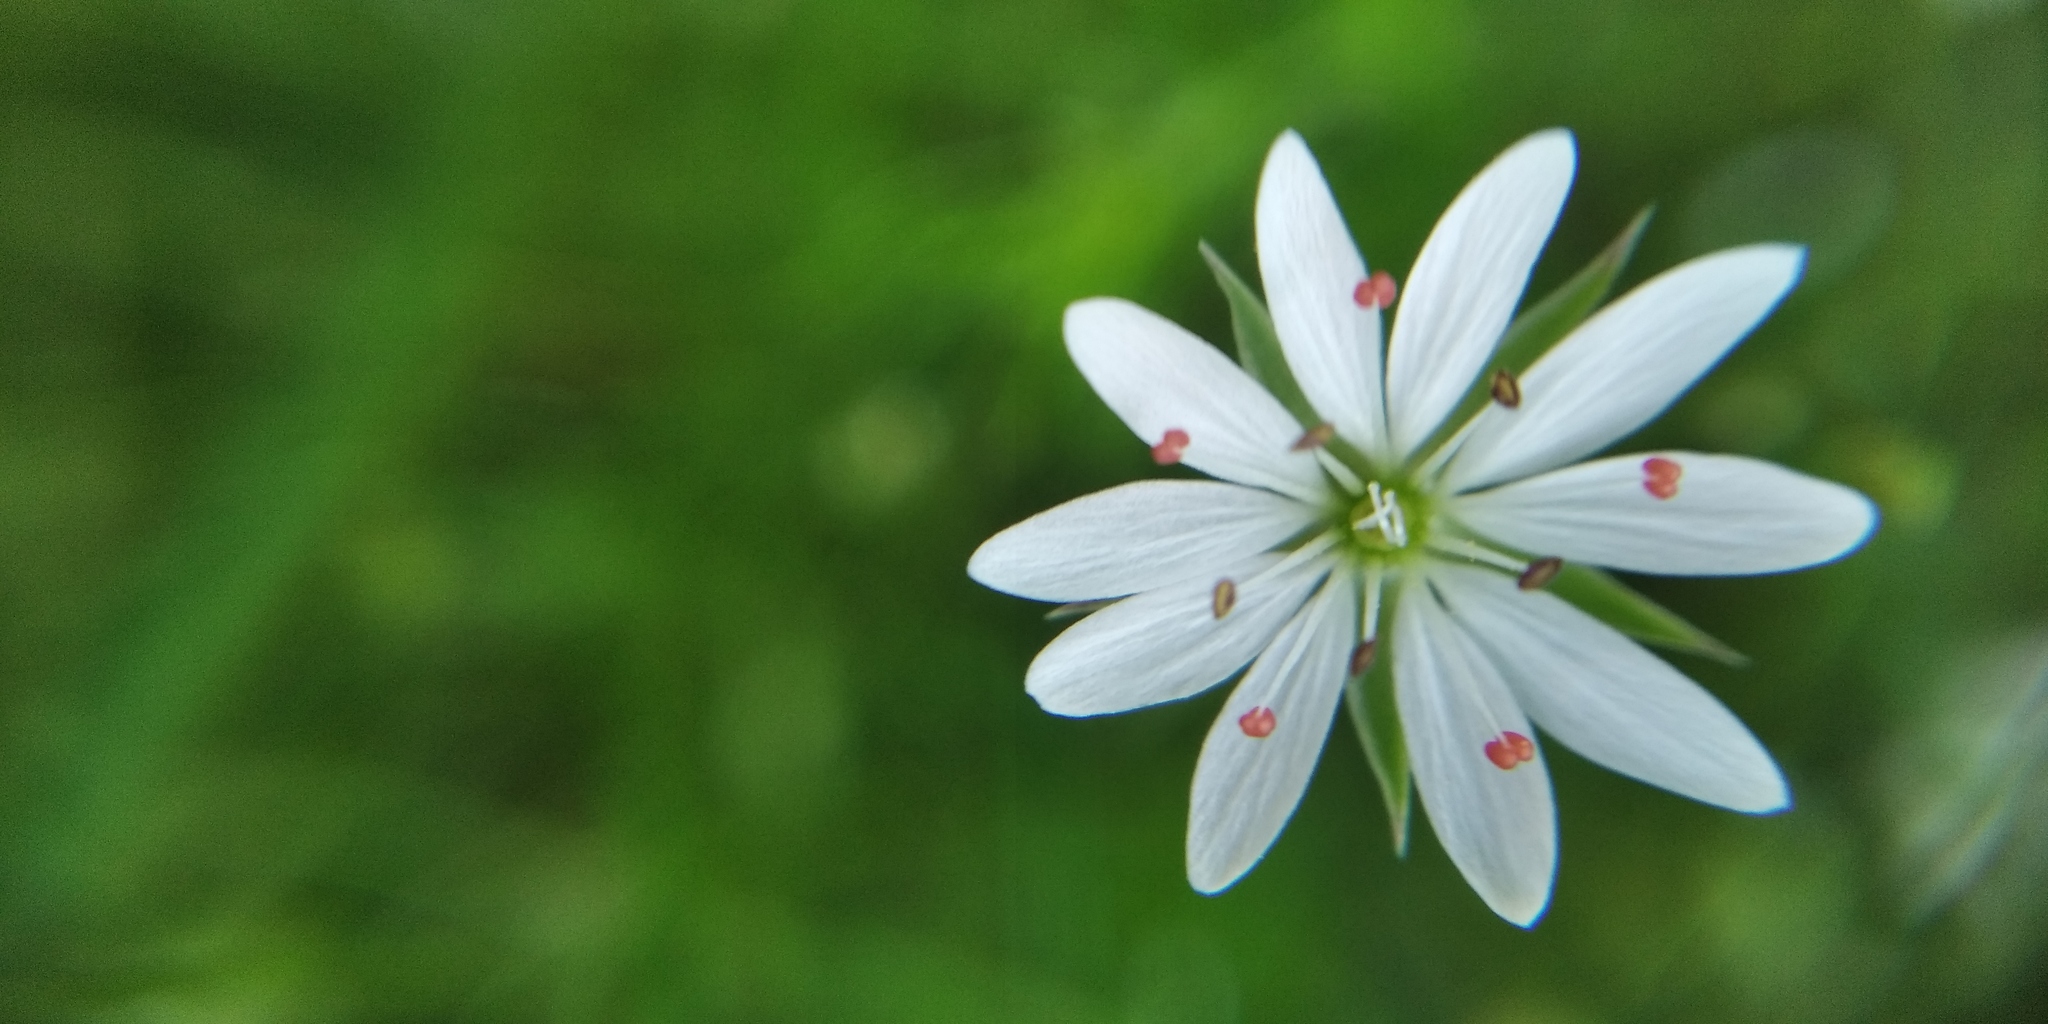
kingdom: Plantae
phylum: Tracheophyta
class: Magnoliopsida
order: Caryophyllales
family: Caryophyllaceae
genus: Stellaria
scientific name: Stellaria graminea
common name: Grass-like starwort
